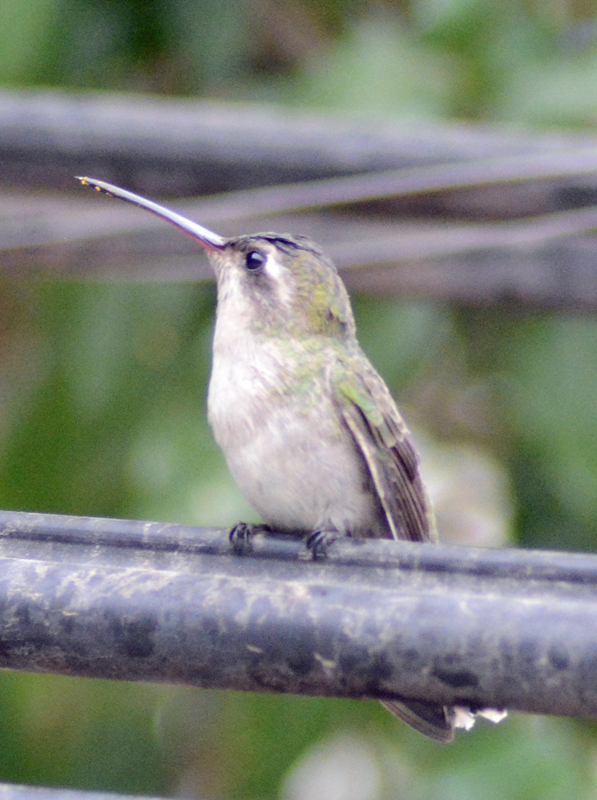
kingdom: Animalia
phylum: Chordata
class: Aves
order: Apodiformes
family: Trochilidae
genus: Cynanthus
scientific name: Cynanthus latirostris
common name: Broad-billed hummingbird
